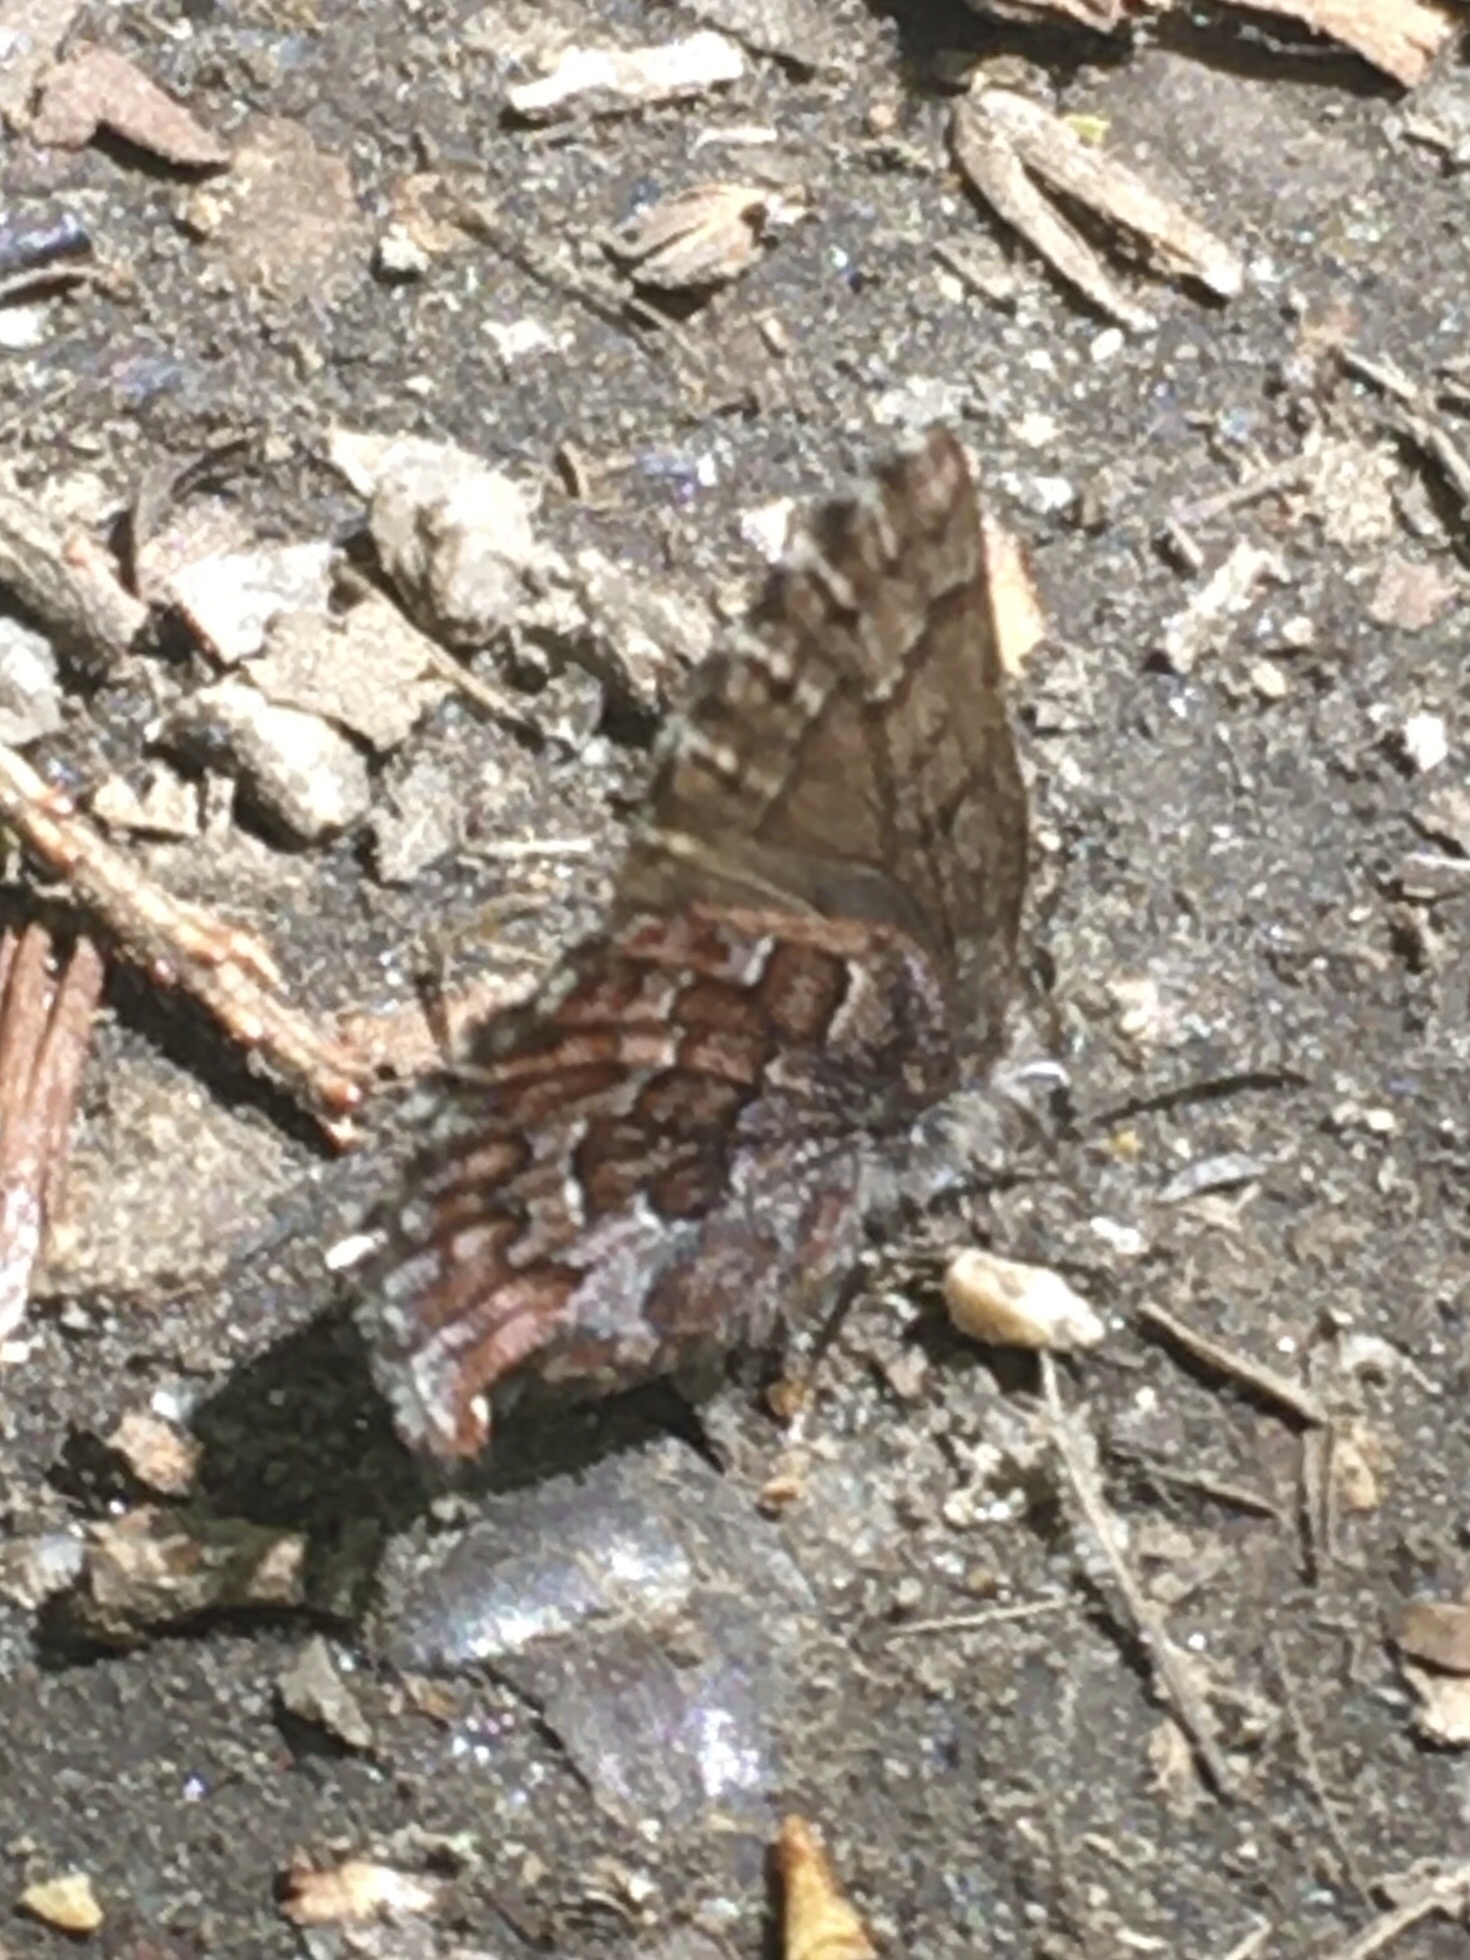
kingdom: Animalia
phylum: Arthropoda
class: Insecta
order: Lepidoptera
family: Lycaenidae
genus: Incisalia
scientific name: Incisalia niphon
